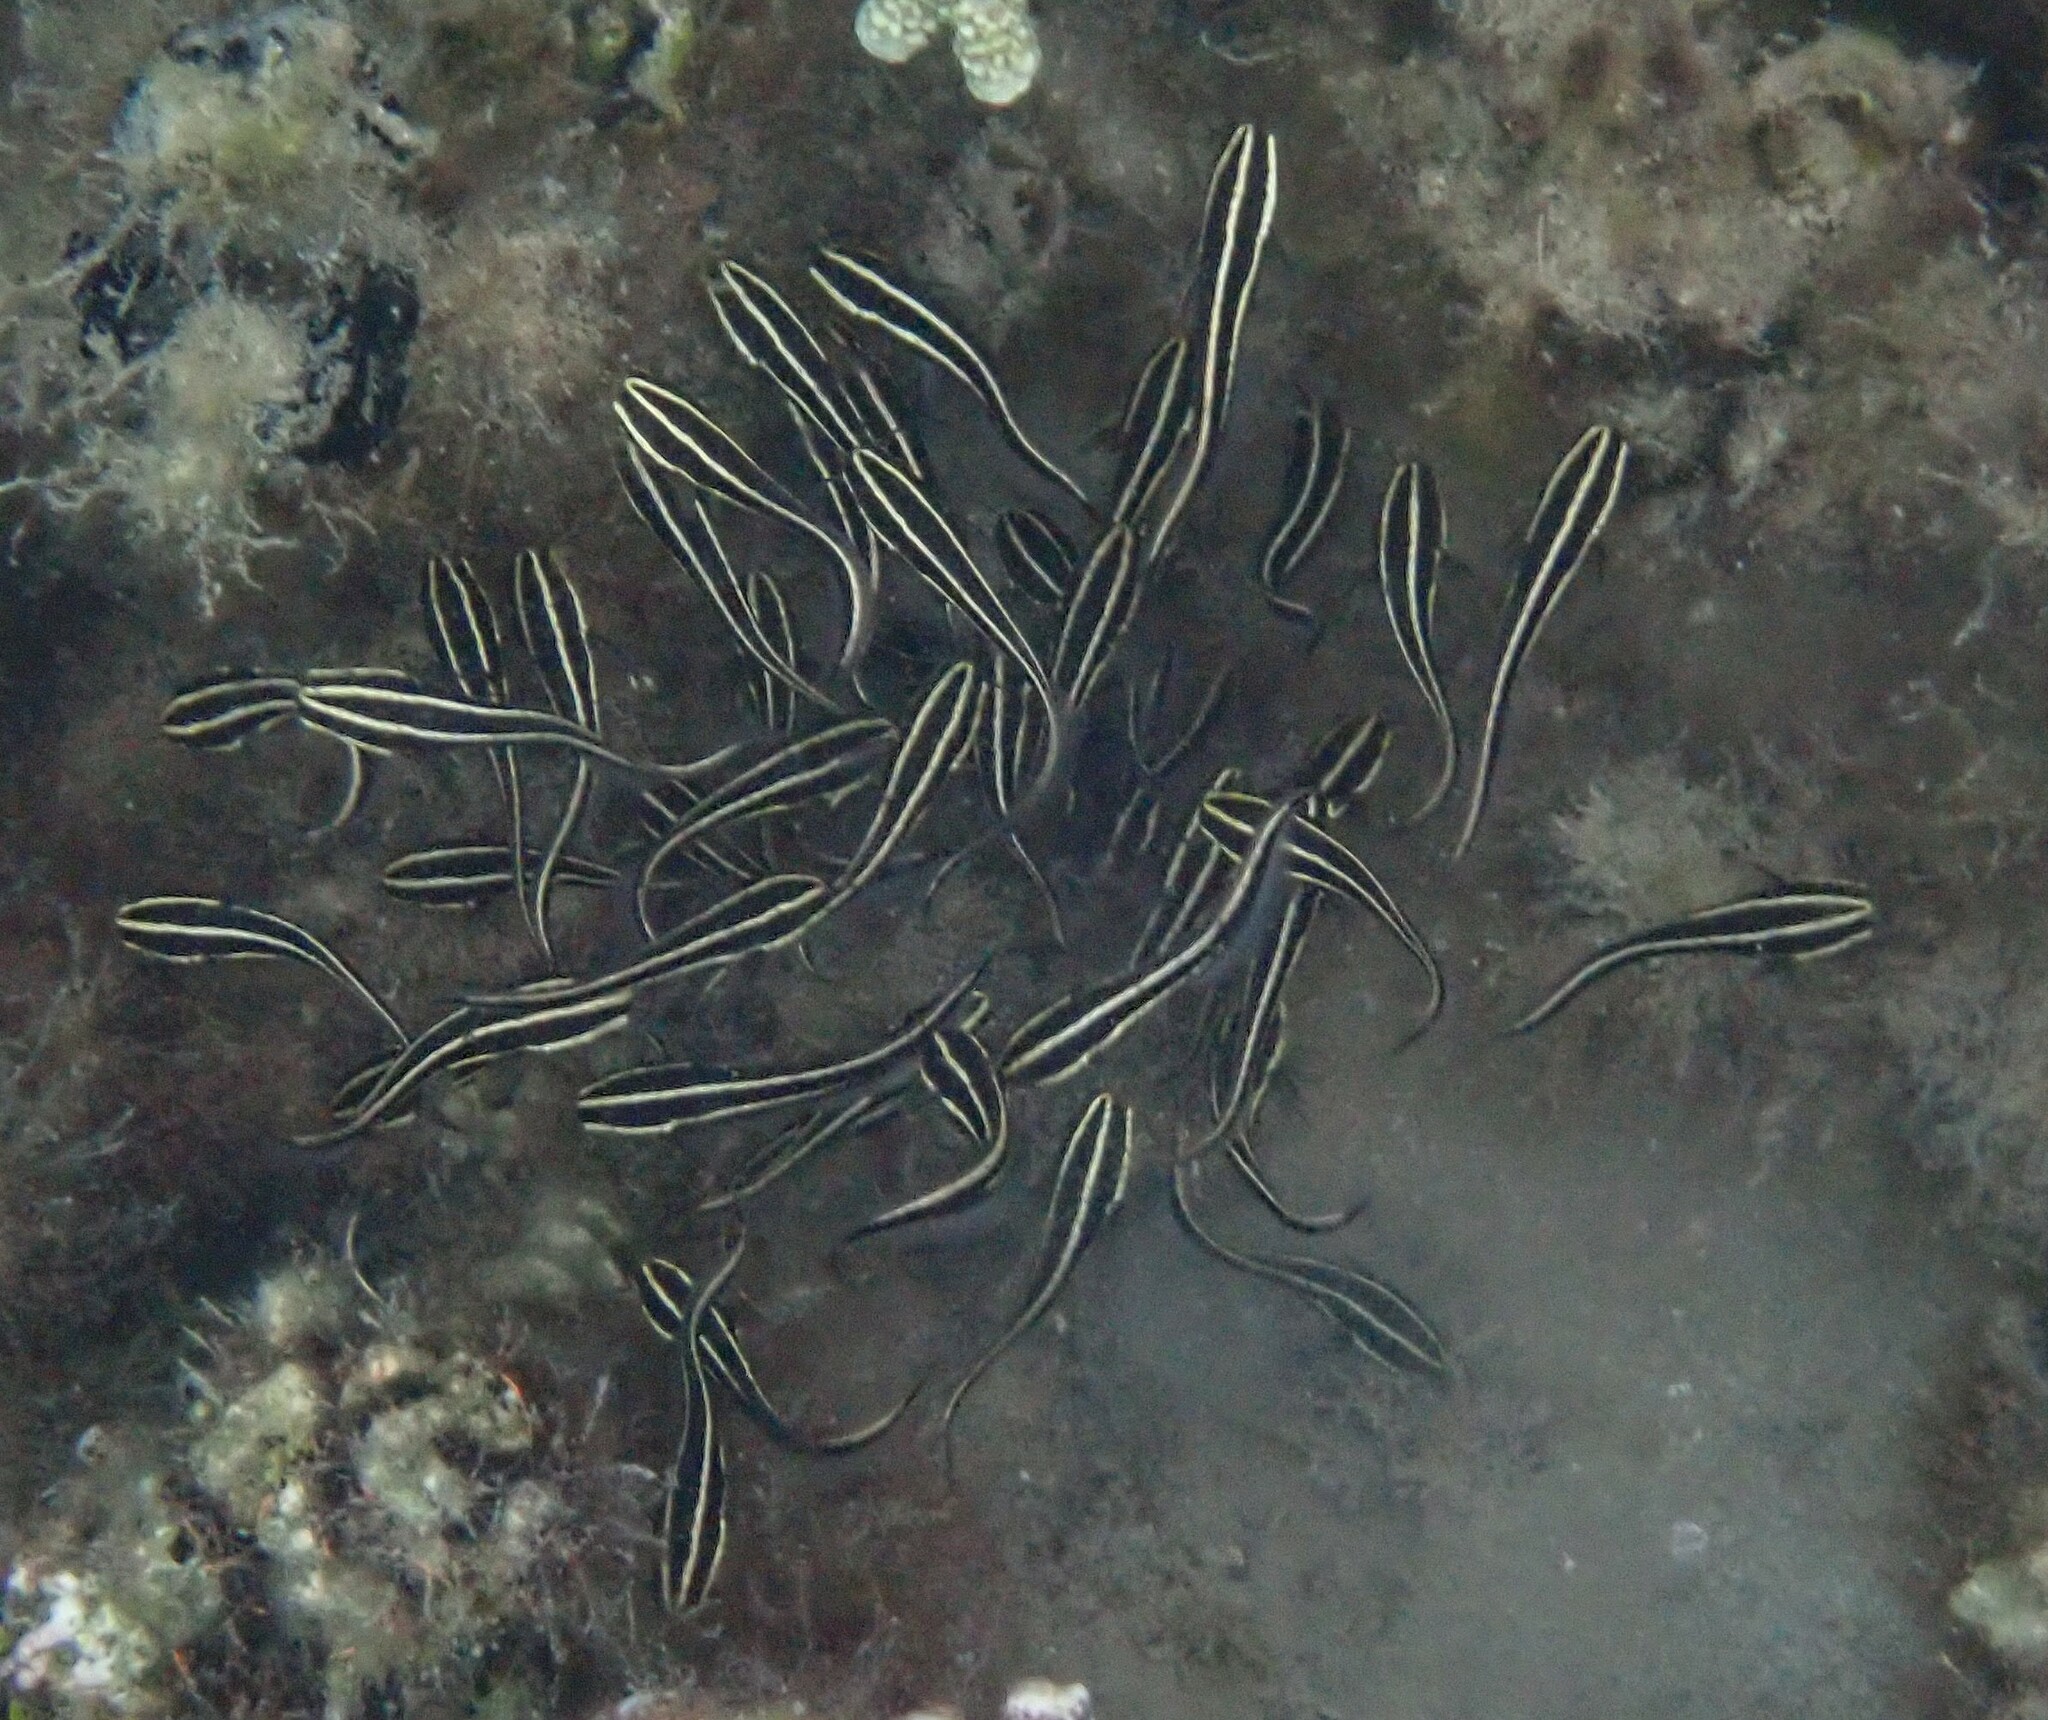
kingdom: Animalia
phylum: Chordata
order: Siluriformes
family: Plotosidae
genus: Plotosus
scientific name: Plotosus lineatus
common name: Striped eel catfish
